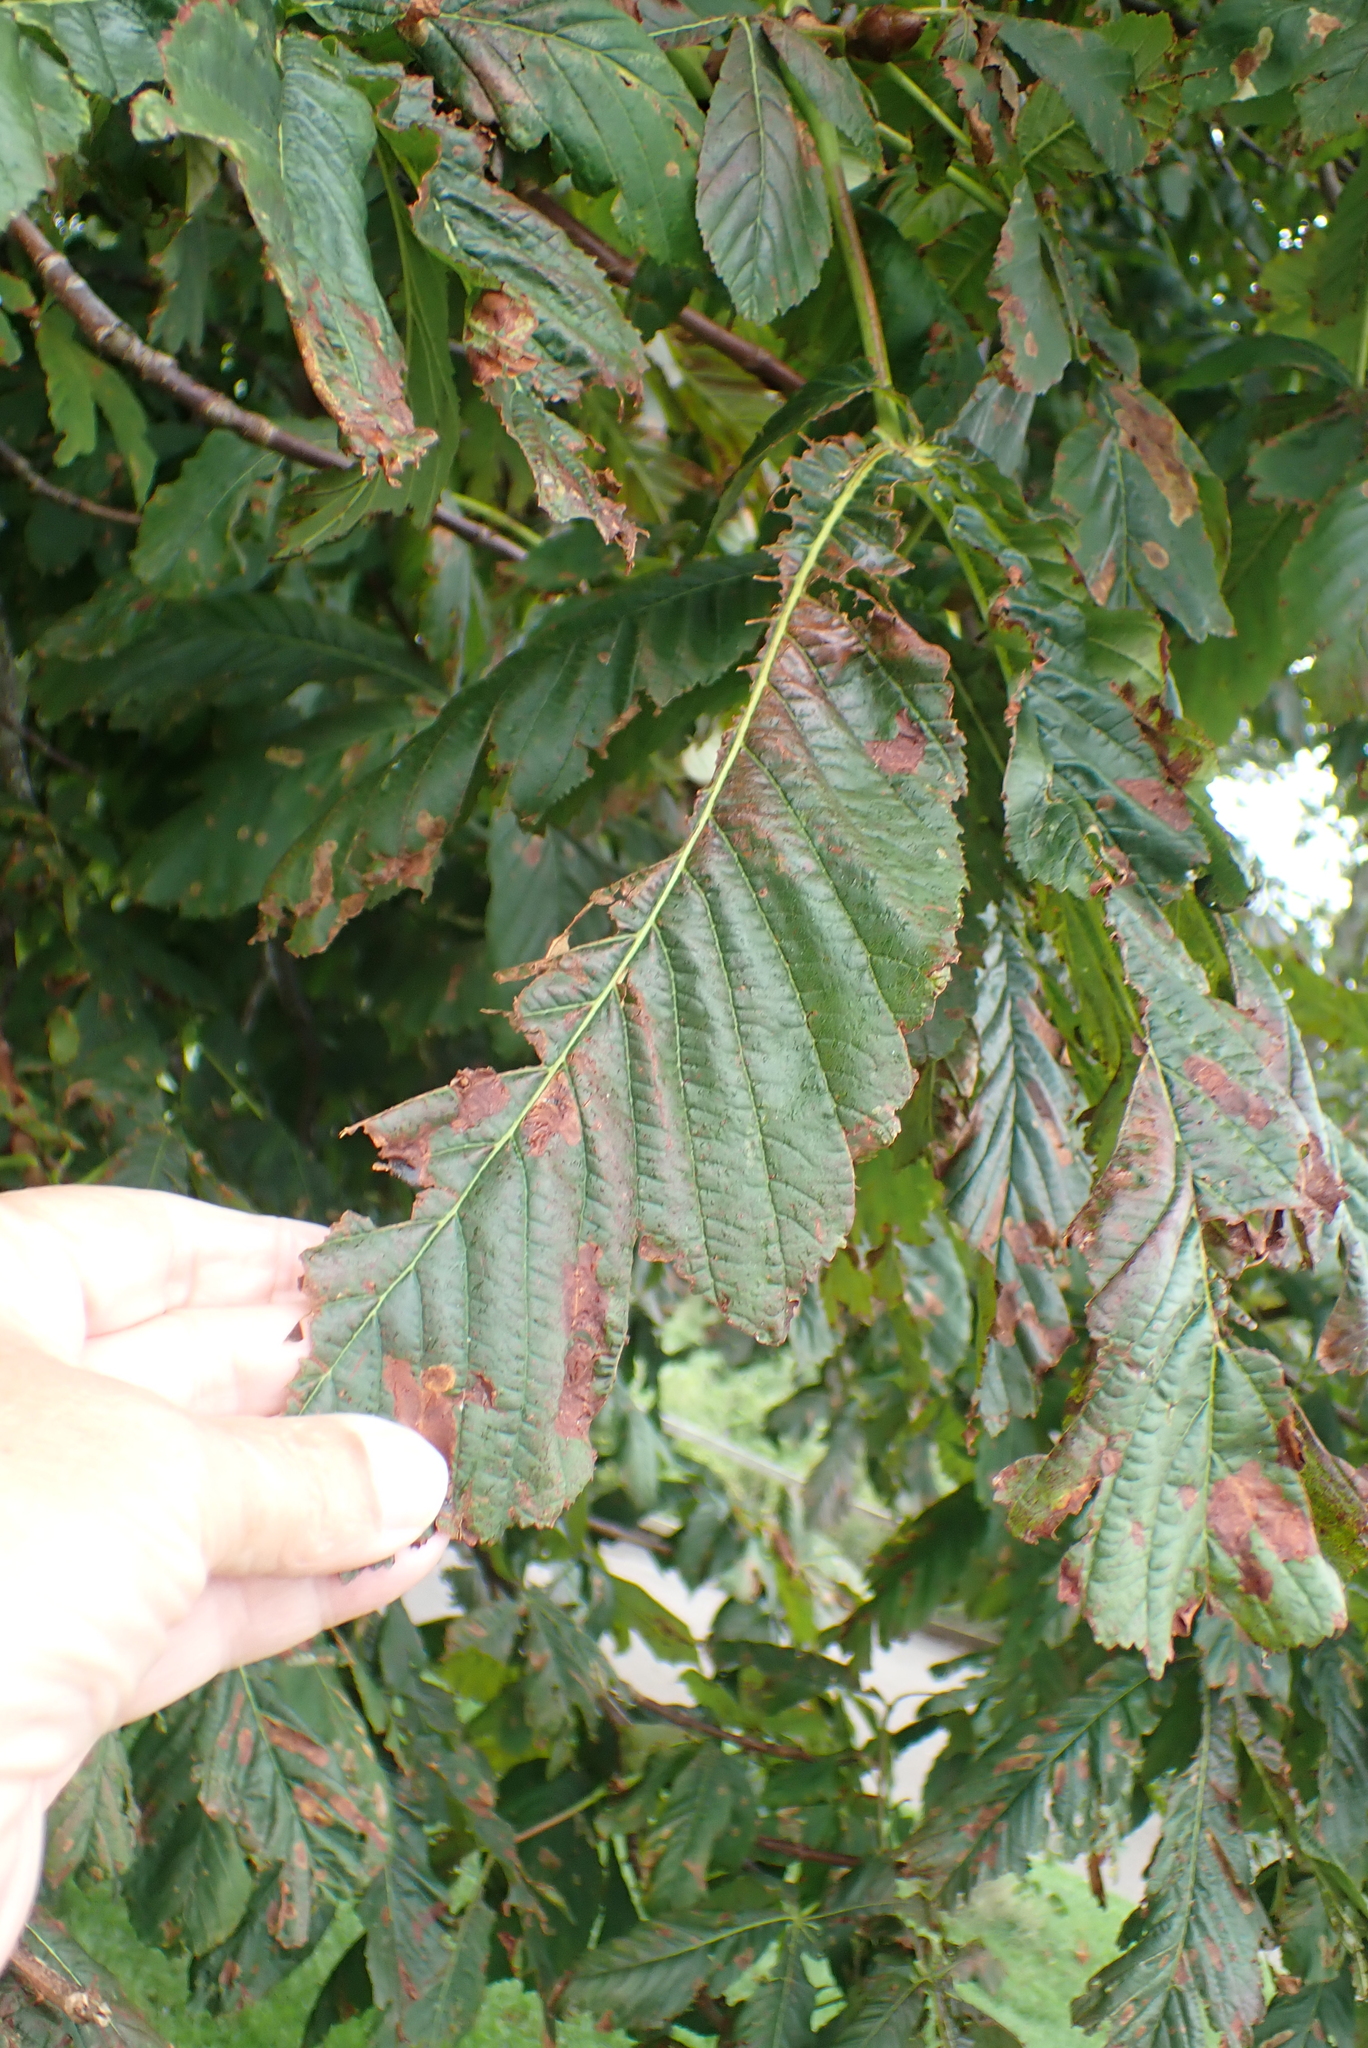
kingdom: Plantae
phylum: Tracheophyta
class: Magnoliopsida
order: Sapindales
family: Sapindaceae
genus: Aesculus
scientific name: Aesculus hippocastanum
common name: Horse-chestnut
